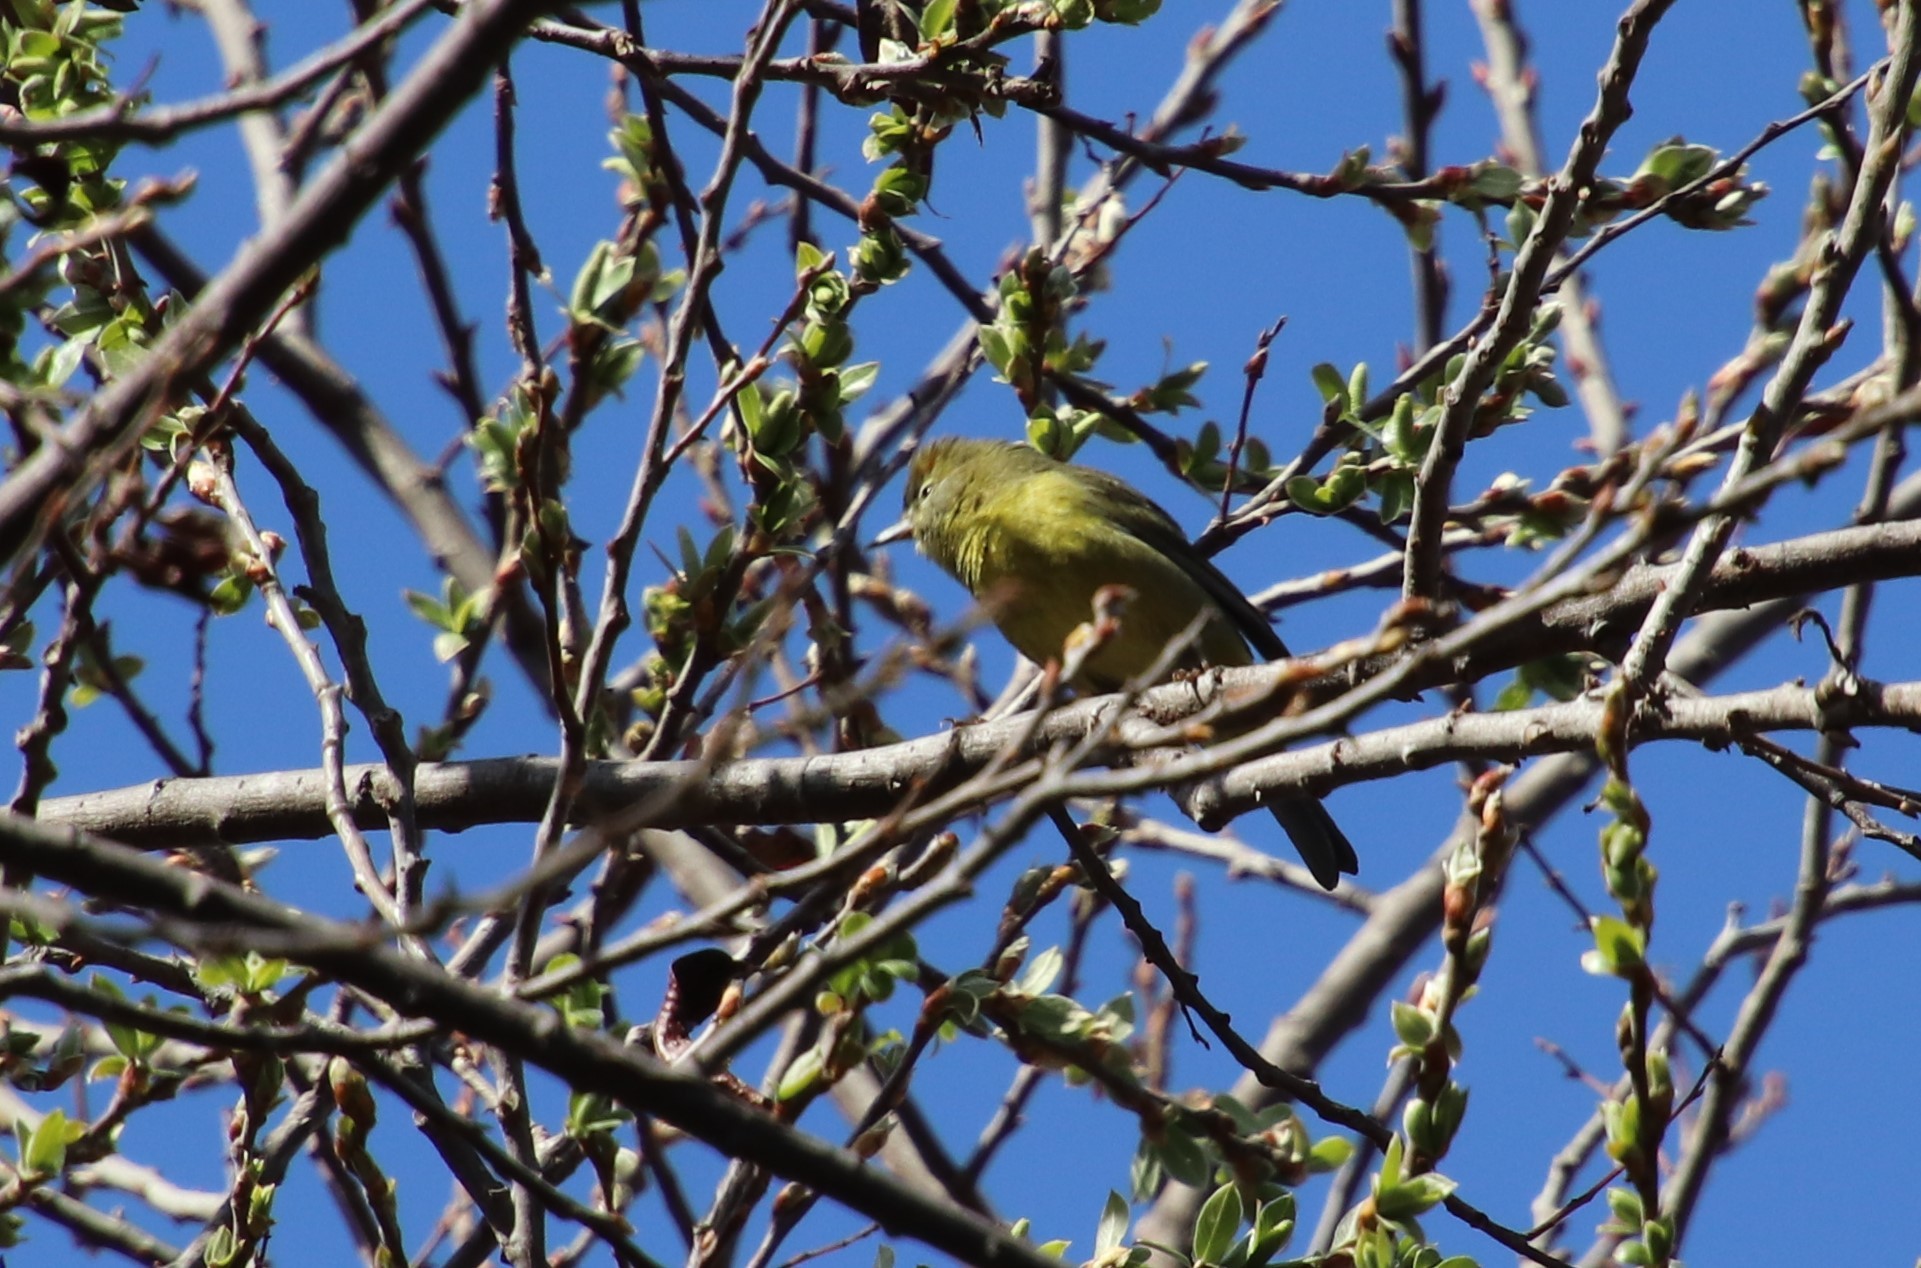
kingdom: Animalia
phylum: Chordata
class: Aves
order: Passeriformes
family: Parulidae
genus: Leiothlypis
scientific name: Leiothlypis celata
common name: Orange-crowned warbler
